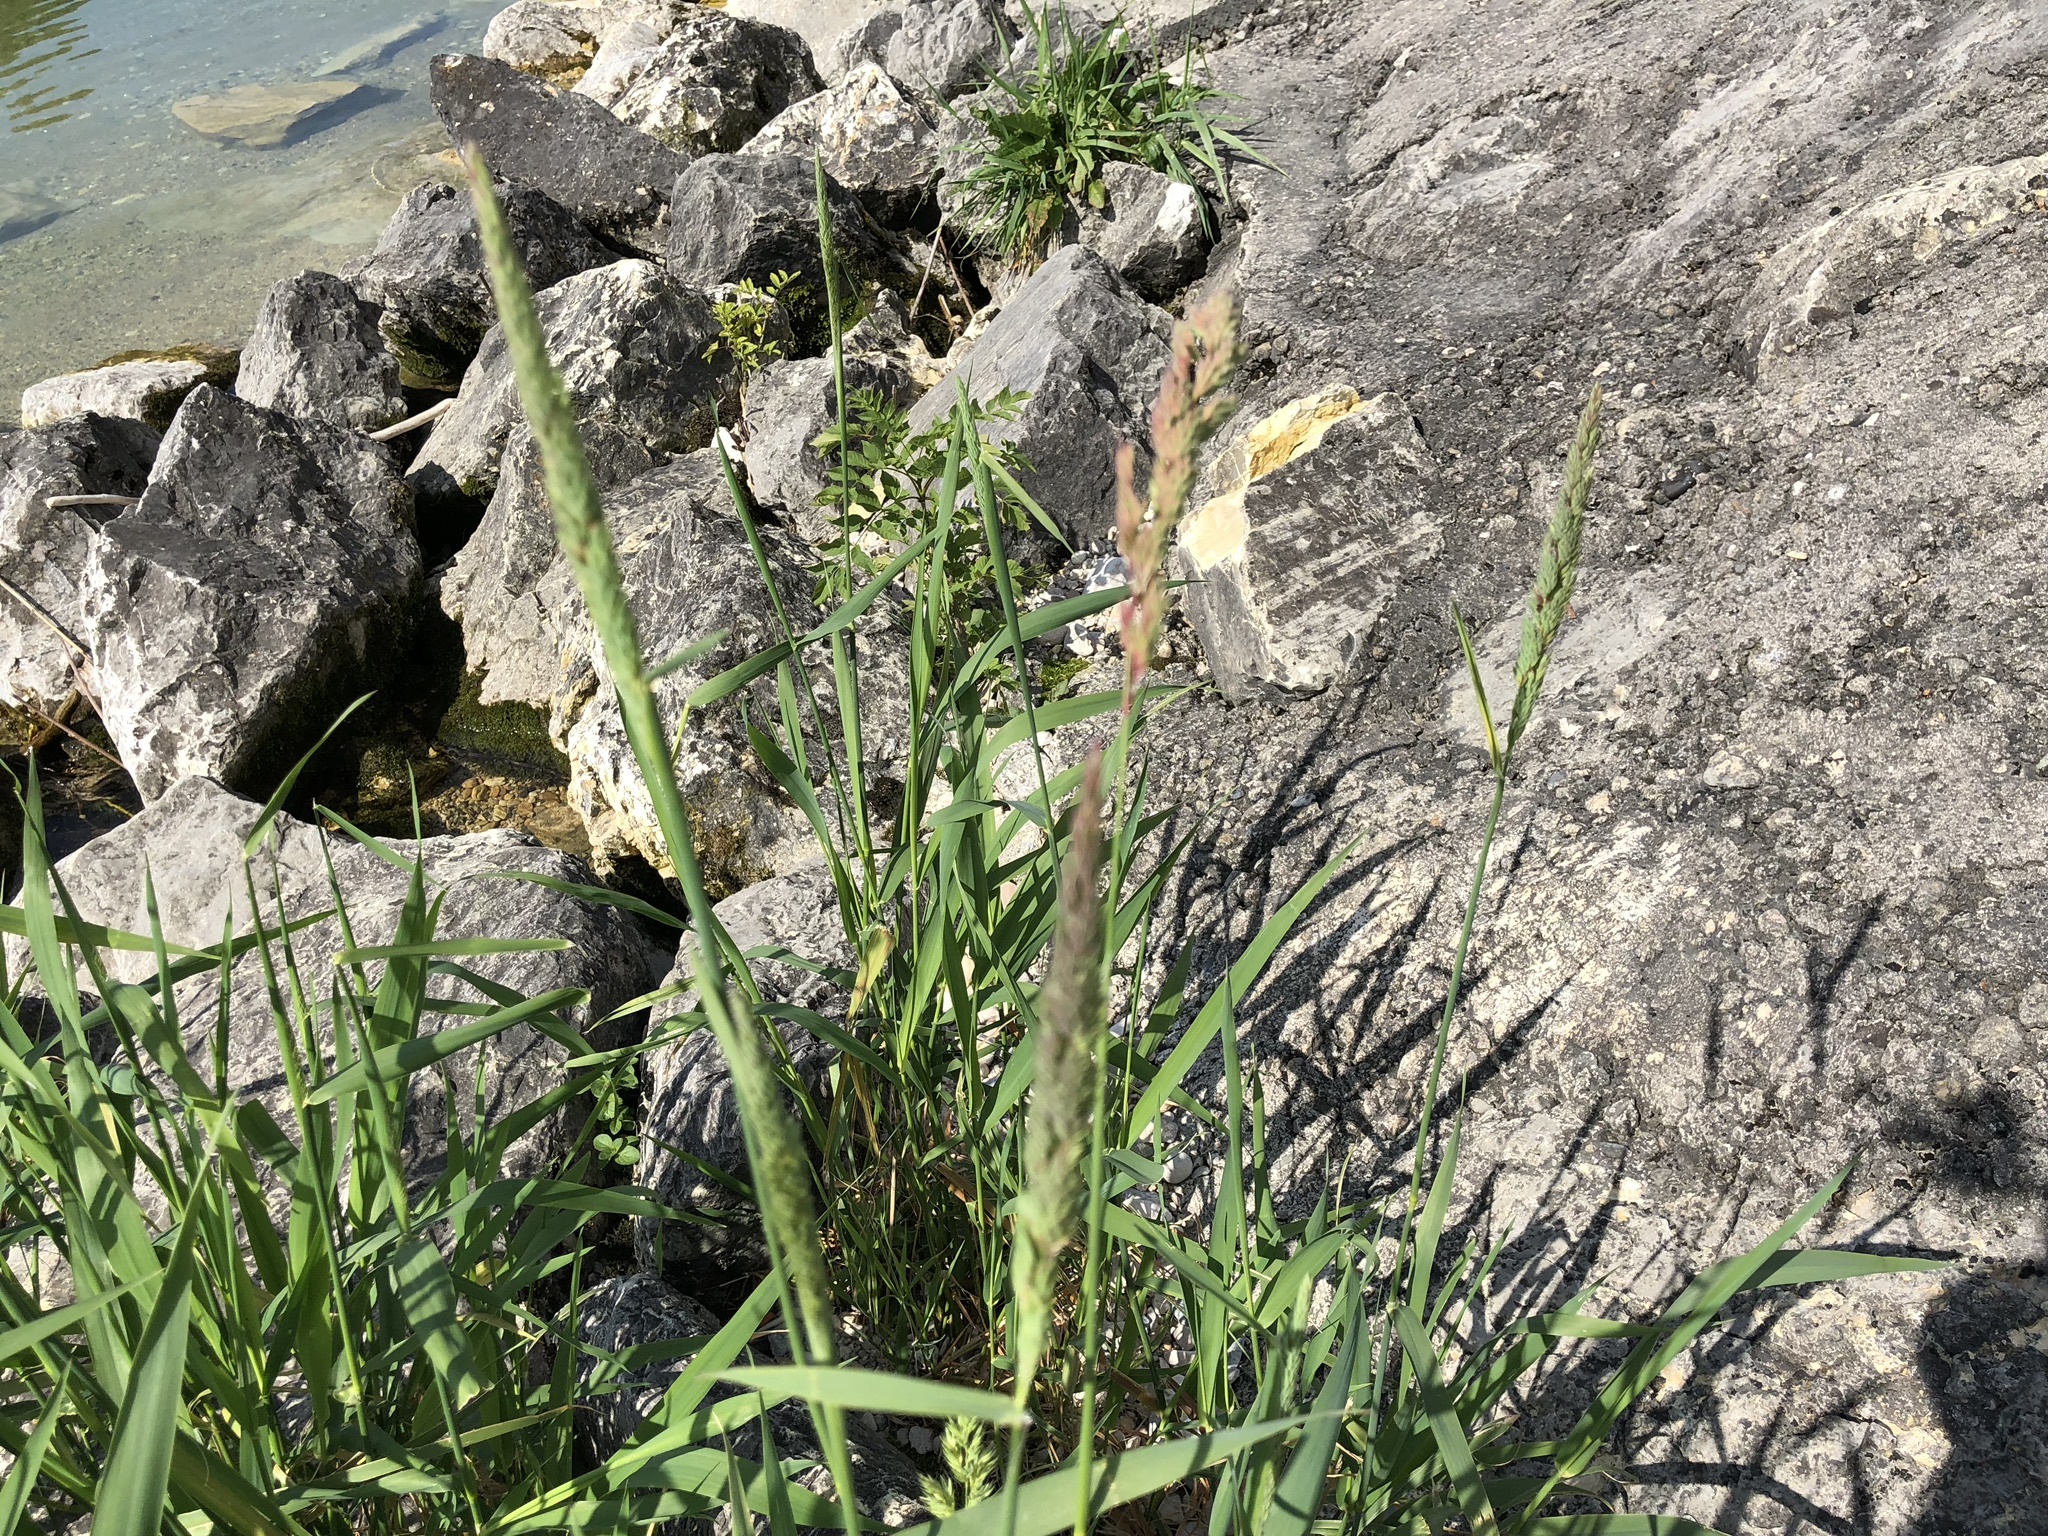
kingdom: Plantae
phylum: Tracheophyta
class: Liliopsida
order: Poales
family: Poaceae
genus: Phalaris
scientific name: Phalaris arundinacea
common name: Reed canary-grass
